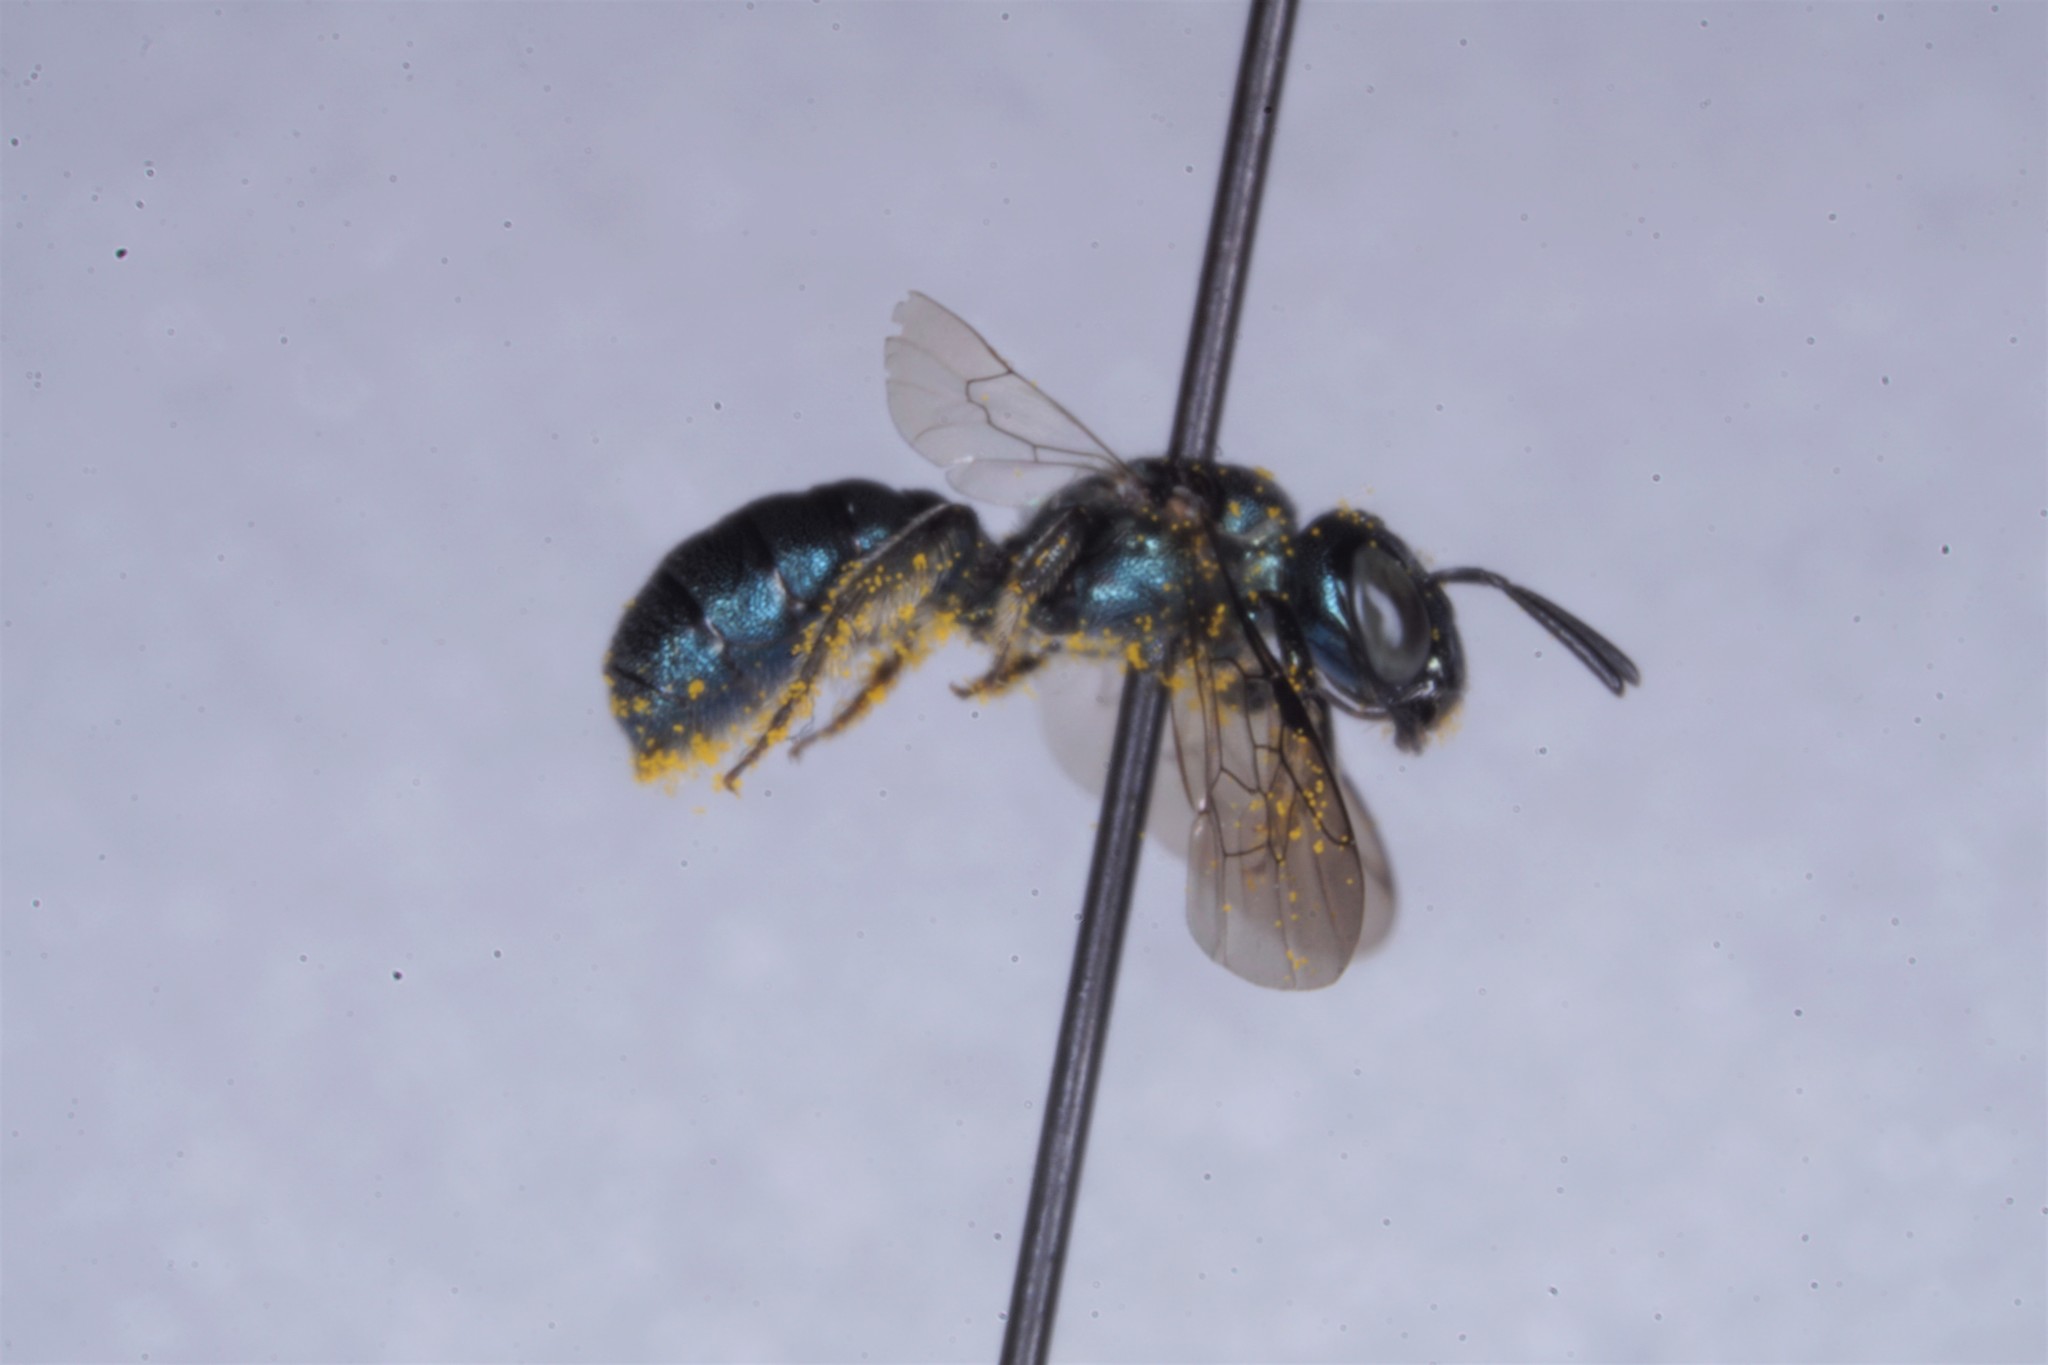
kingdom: Animalia
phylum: Arthropoda
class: Insecta
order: Hymenoptera
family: Apidae
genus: Ceratina
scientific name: Ceratina calcarata
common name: Spurred carpenter bee
